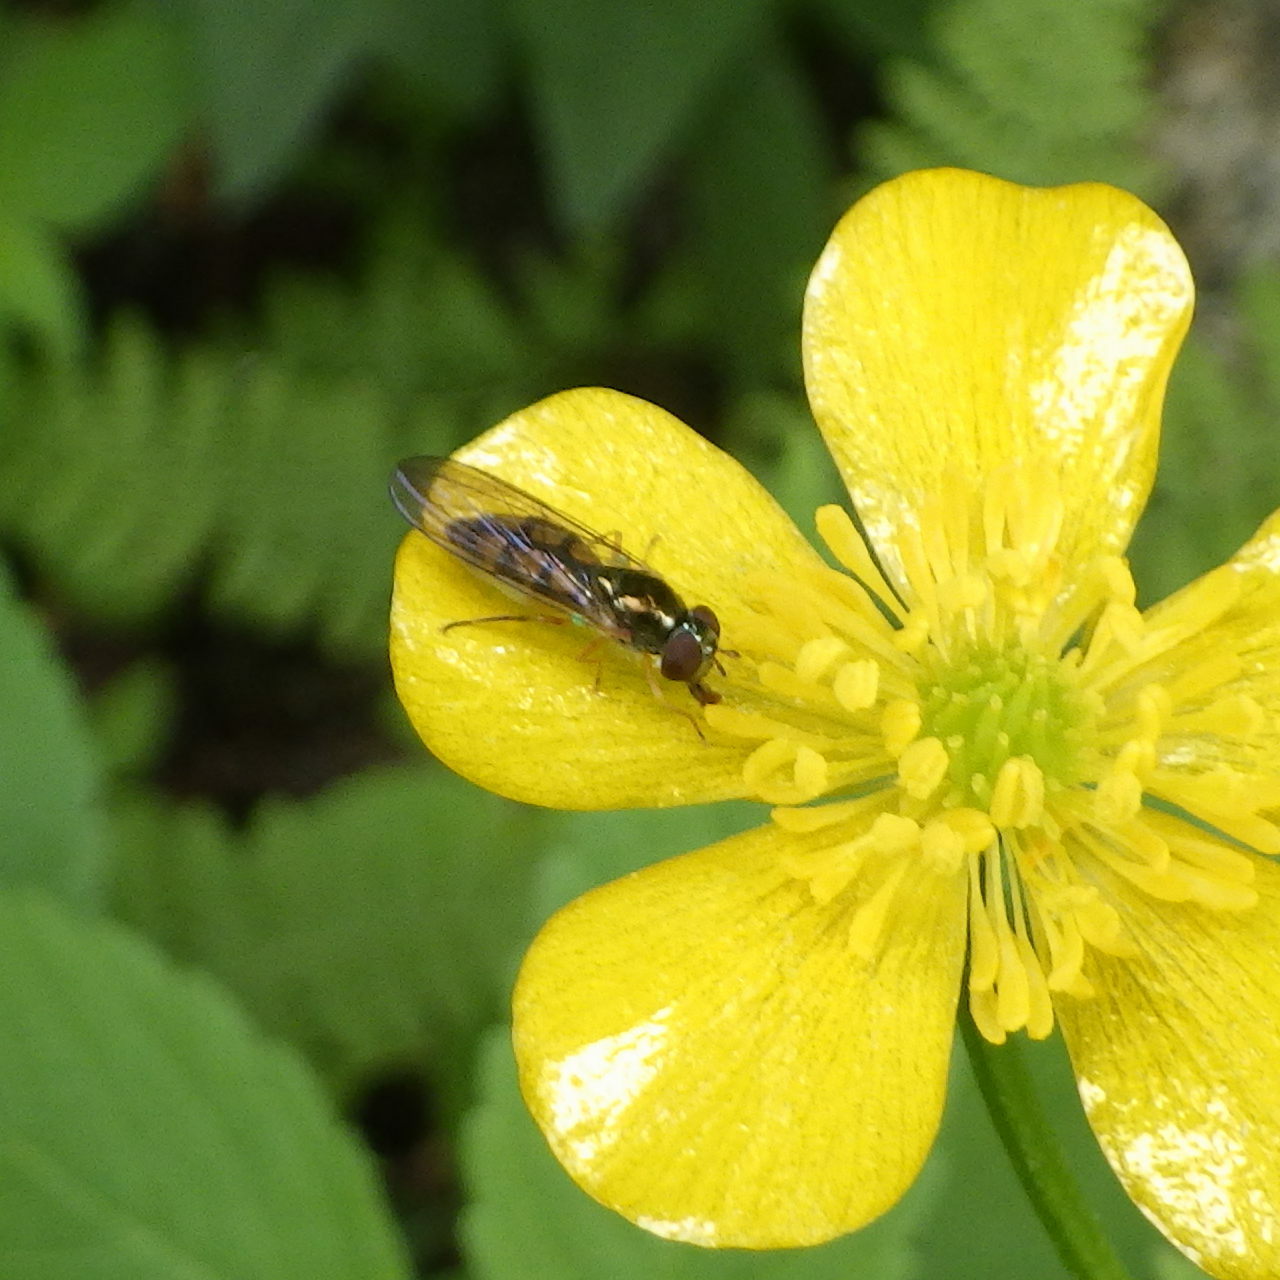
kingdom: Animalia
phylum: Arthropoda
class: Insecta
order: Diptera
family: Syrphidae
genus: Melanostoma
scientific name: Melanostoma mellina
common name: Hover fly
